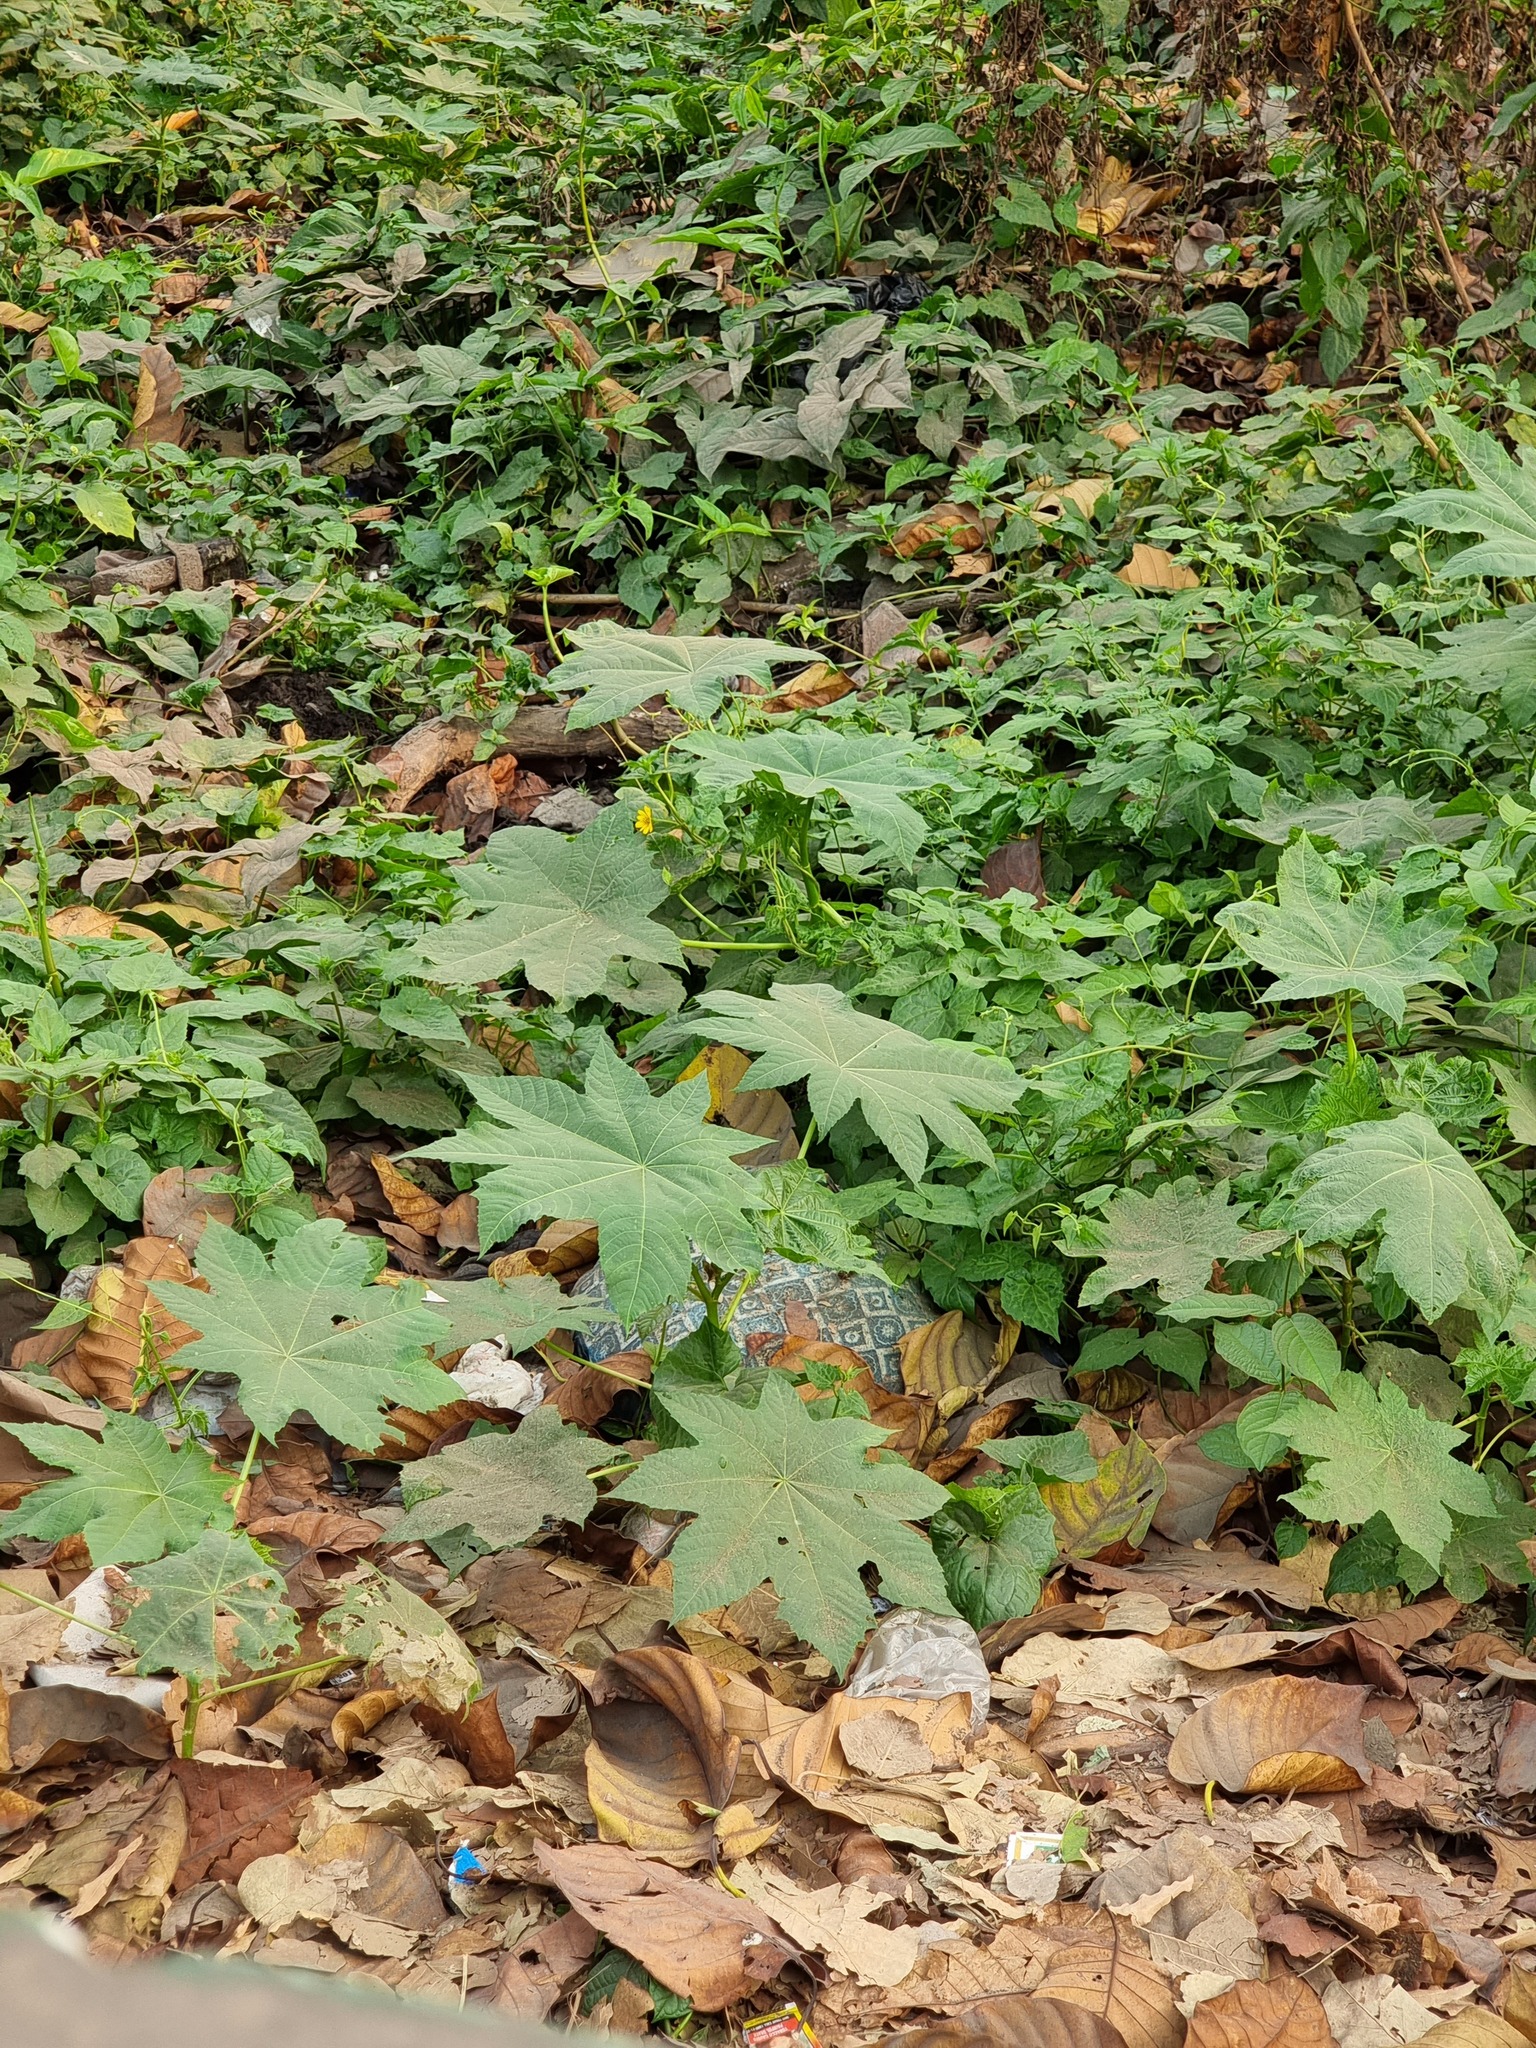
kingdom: Plantae
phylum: Tracheophyta
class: Magnoliopsida
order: Malpighiales
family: Euphorbiaceae
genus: Ricinus
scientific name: Ricinus communis
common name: Castor-oil-plant
